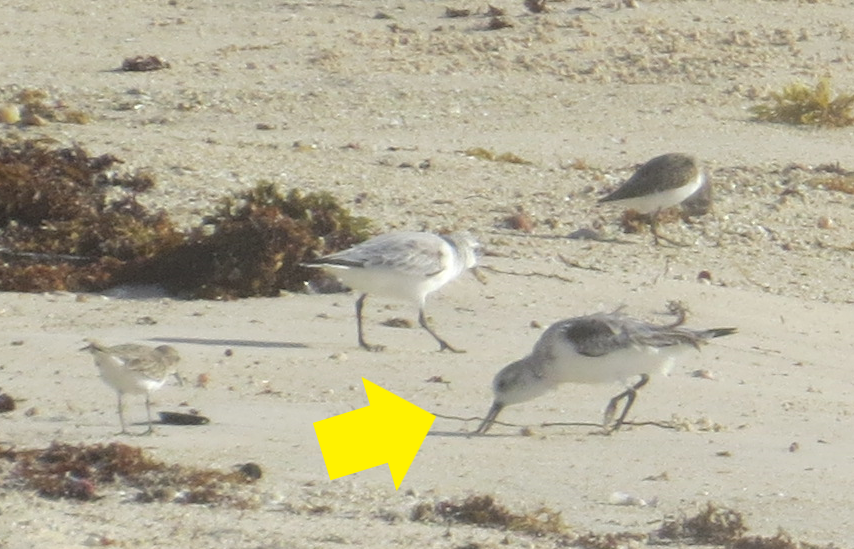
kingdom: Animalia
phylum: Chordata
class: Aves
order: Charadriiformes
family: Scolopacidae
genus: Calidris
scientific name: Calidris alba
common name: Sanderling
